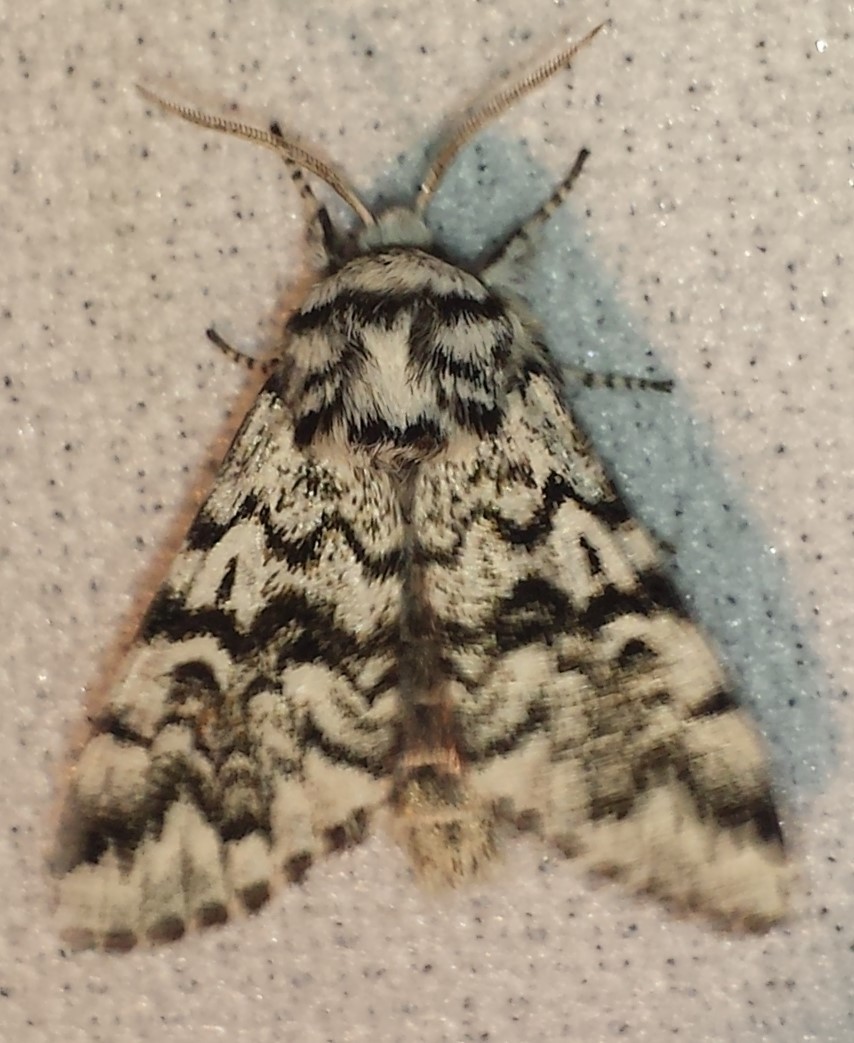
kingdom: Animalia
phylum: Arthropoda
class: Insecta
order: Lepidoptera
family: Noctuidae
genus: Panthea
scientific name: Panthea acronyctoides
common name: Black zigzag moth
